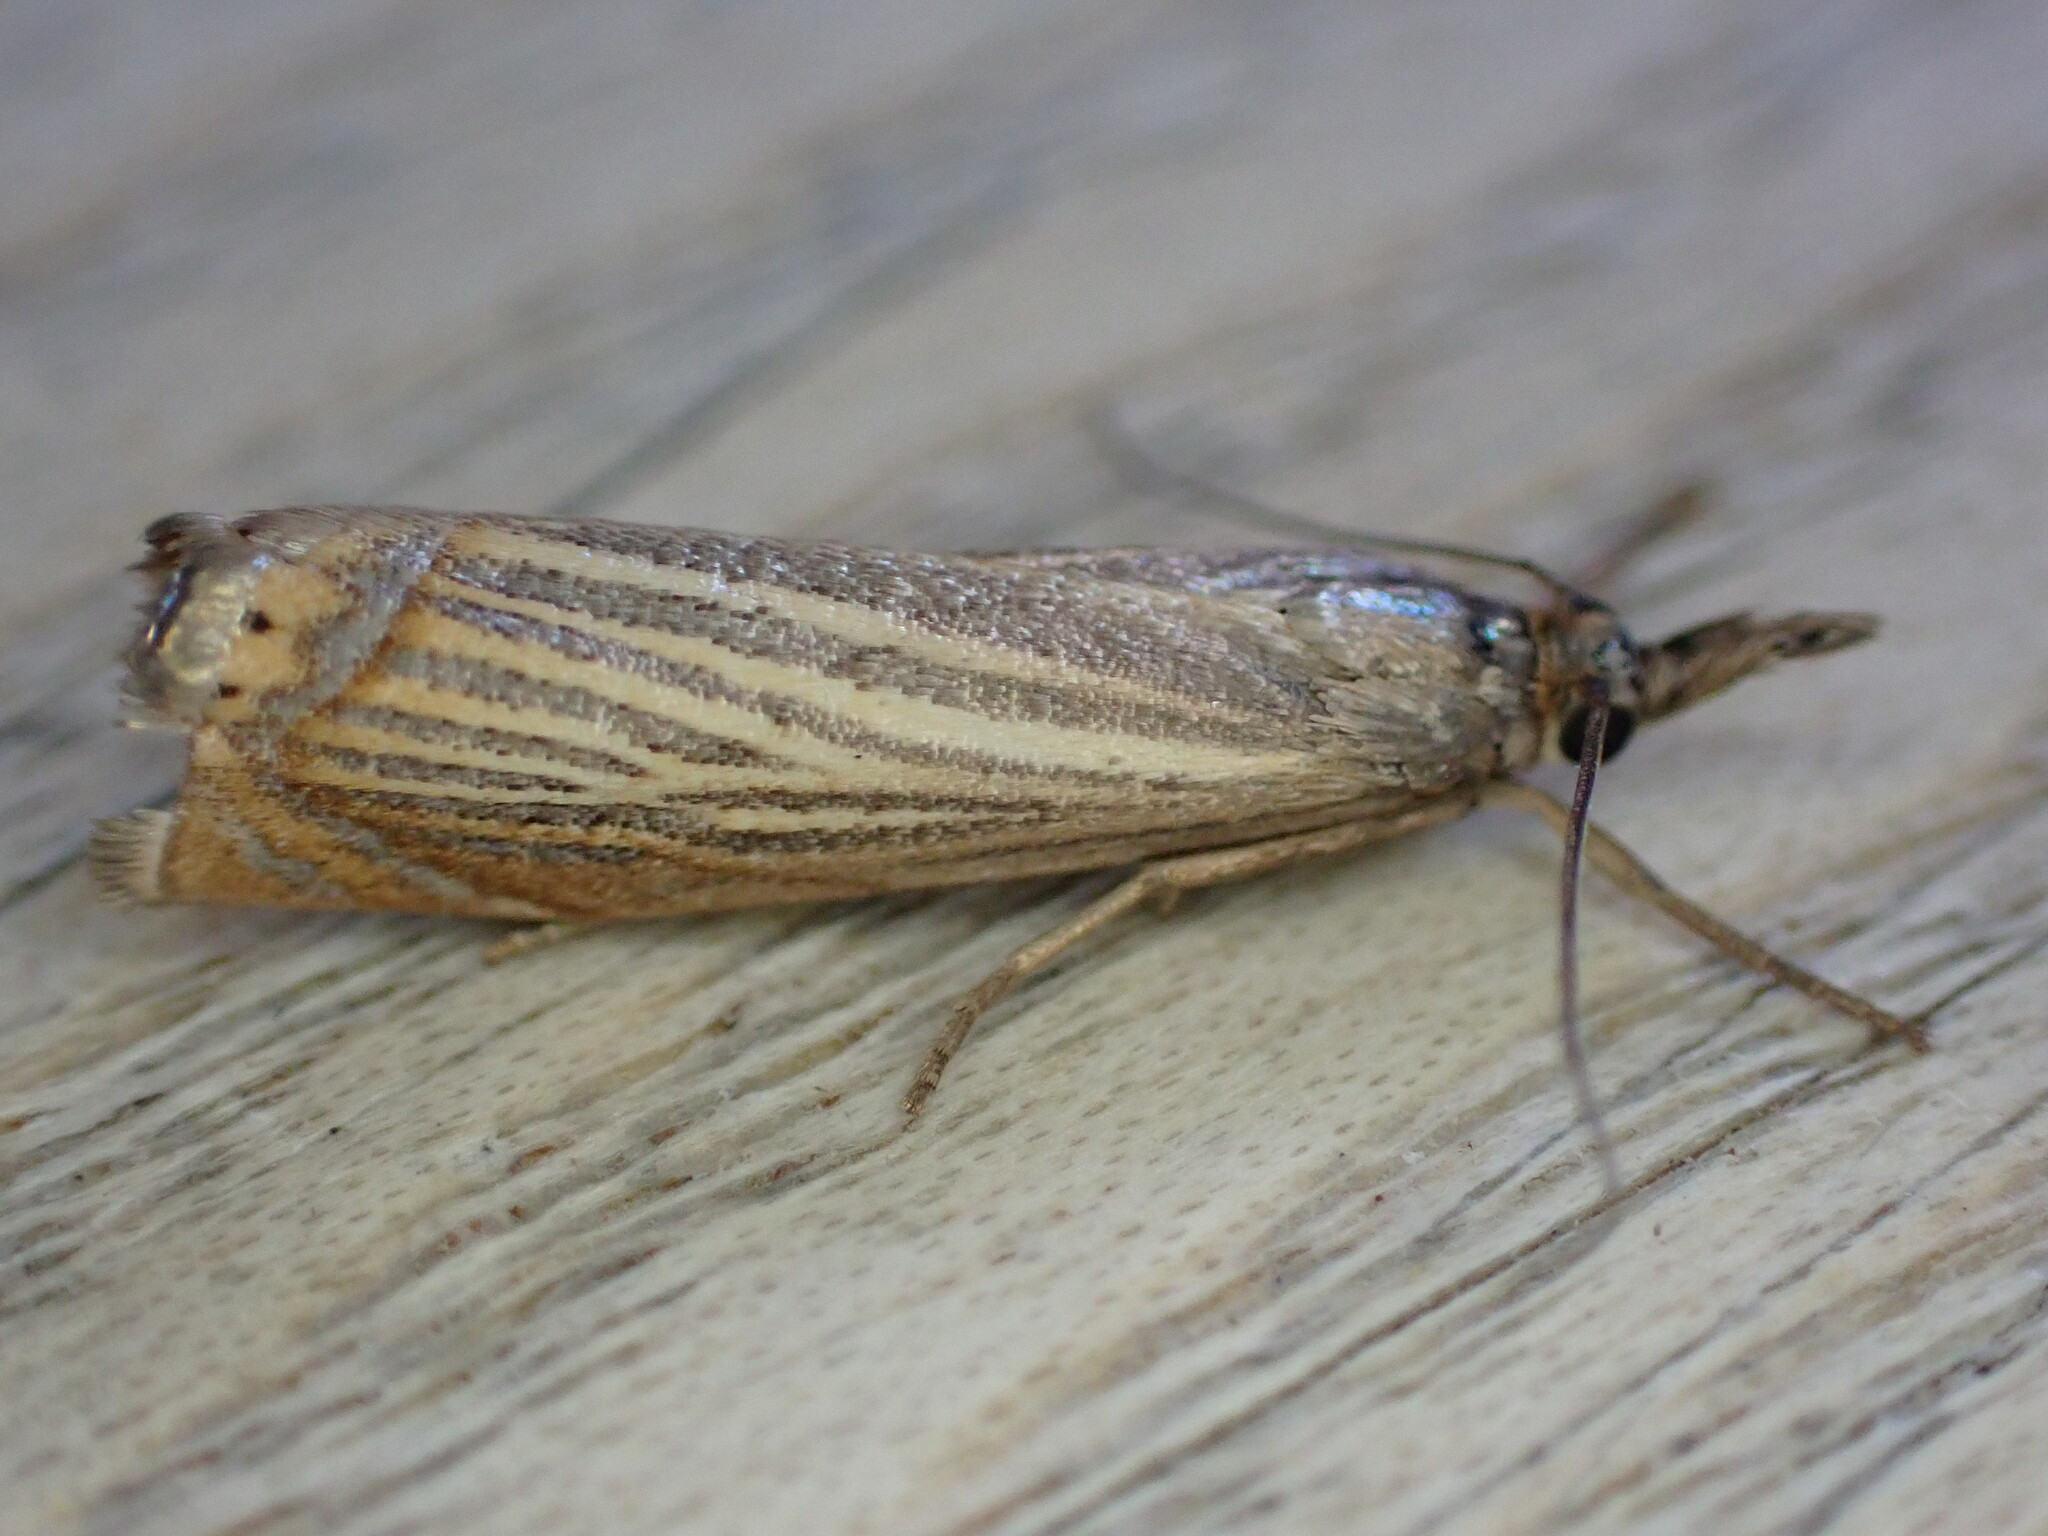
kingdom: Animalia
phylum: Arthropoda
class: Insecta
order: Lepidoptera
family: Crambidae
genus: Chrysoteuchia
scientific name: Chrysoteuchia culmella
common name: Garden grass-veneer
